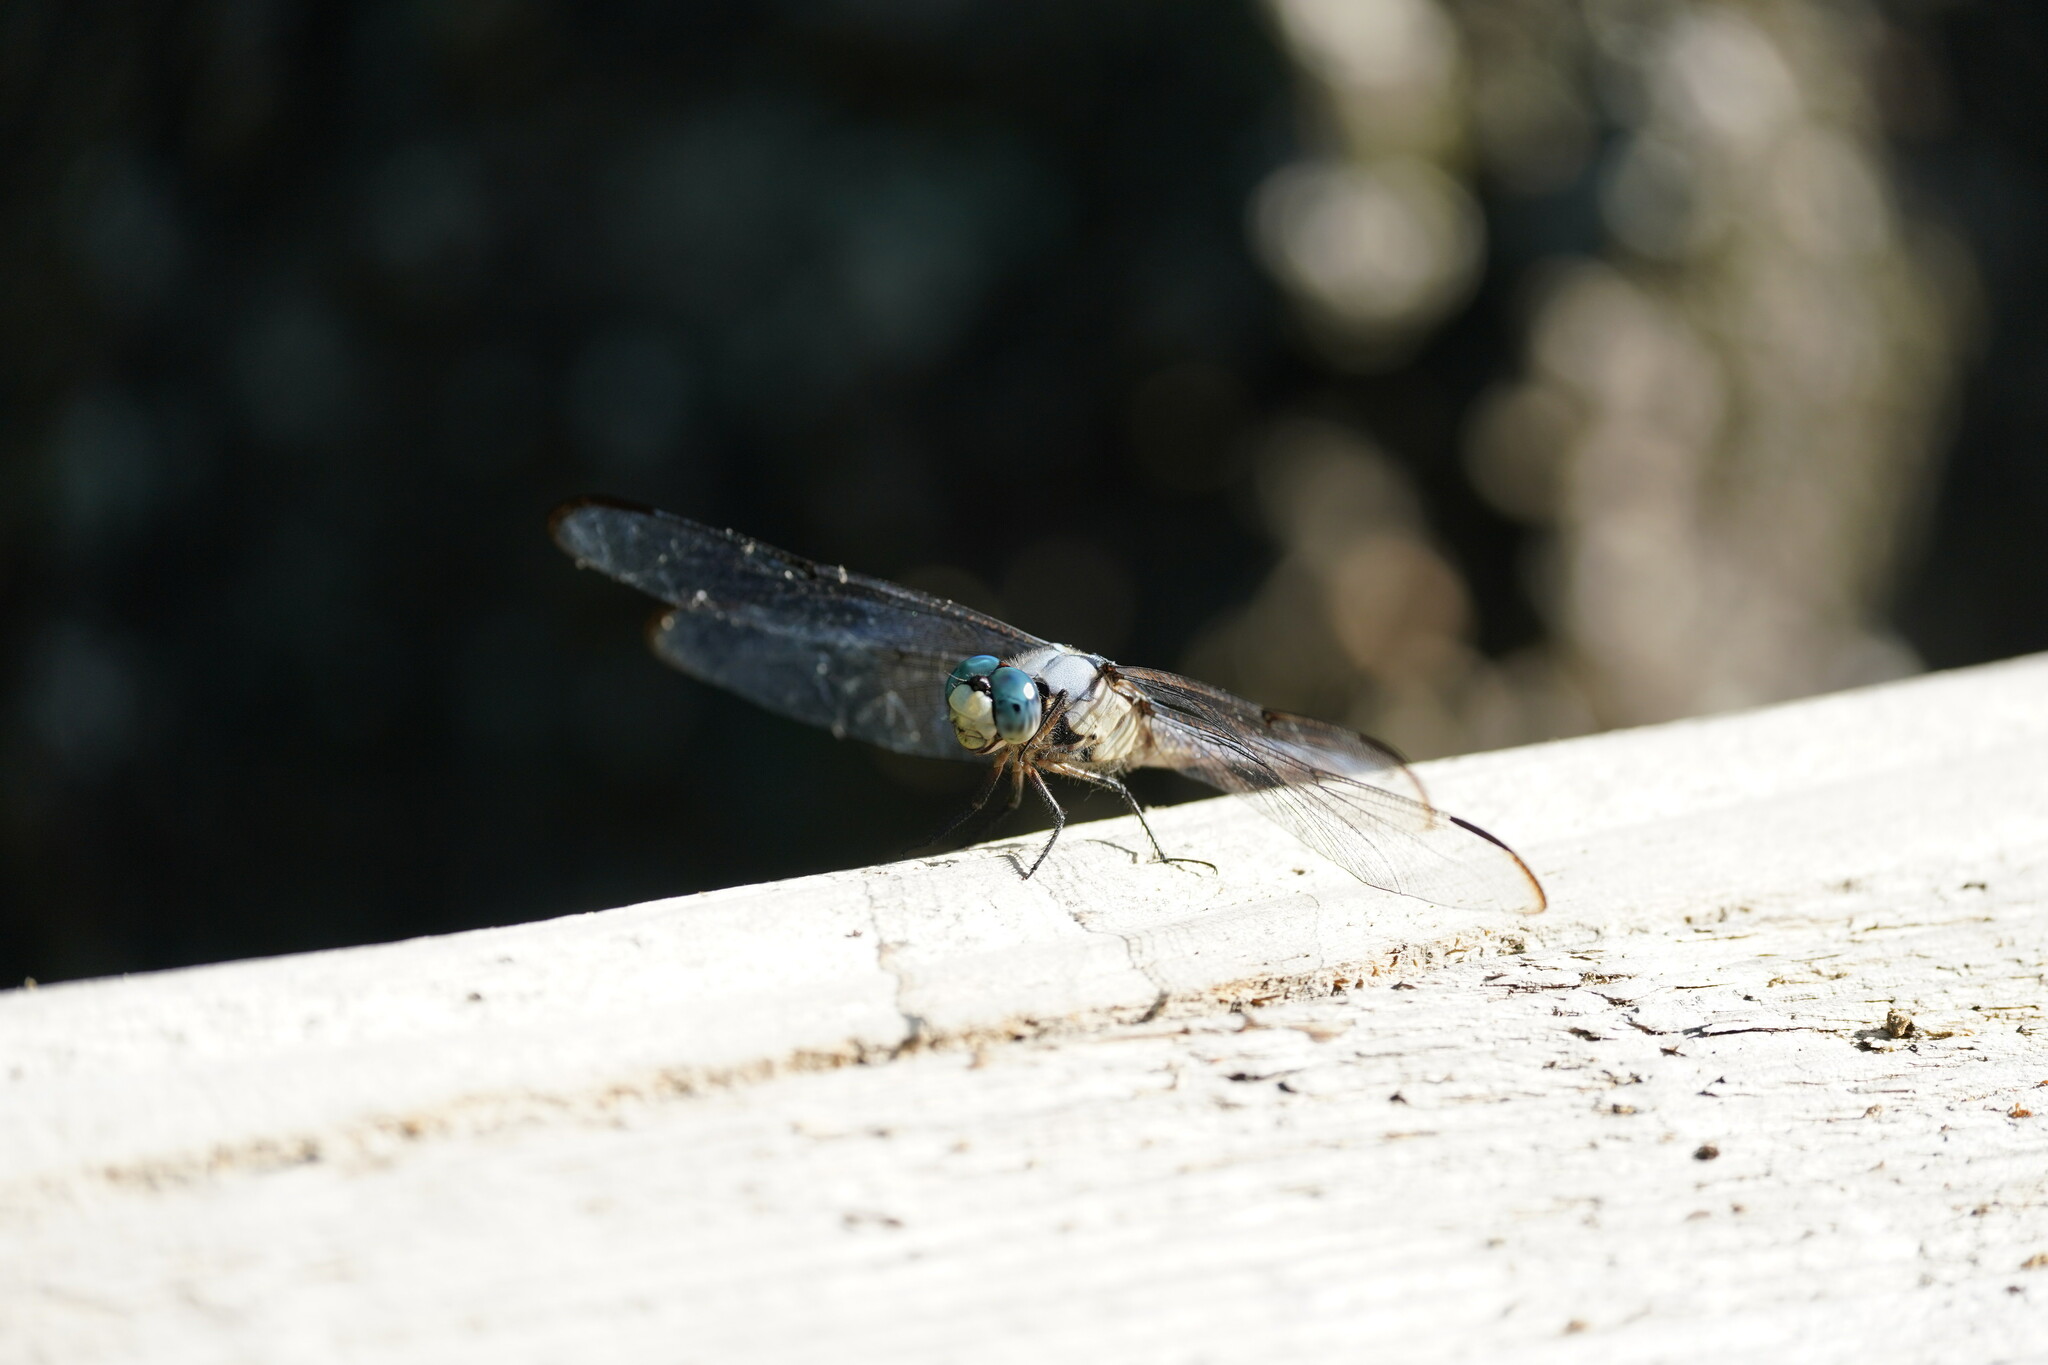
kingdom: Animalia
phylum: Arthropoda
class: Insecta
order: Odonata
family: Libellulidae
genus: Libellula
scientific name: Libellula vibrans
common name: Great blue skimmer
